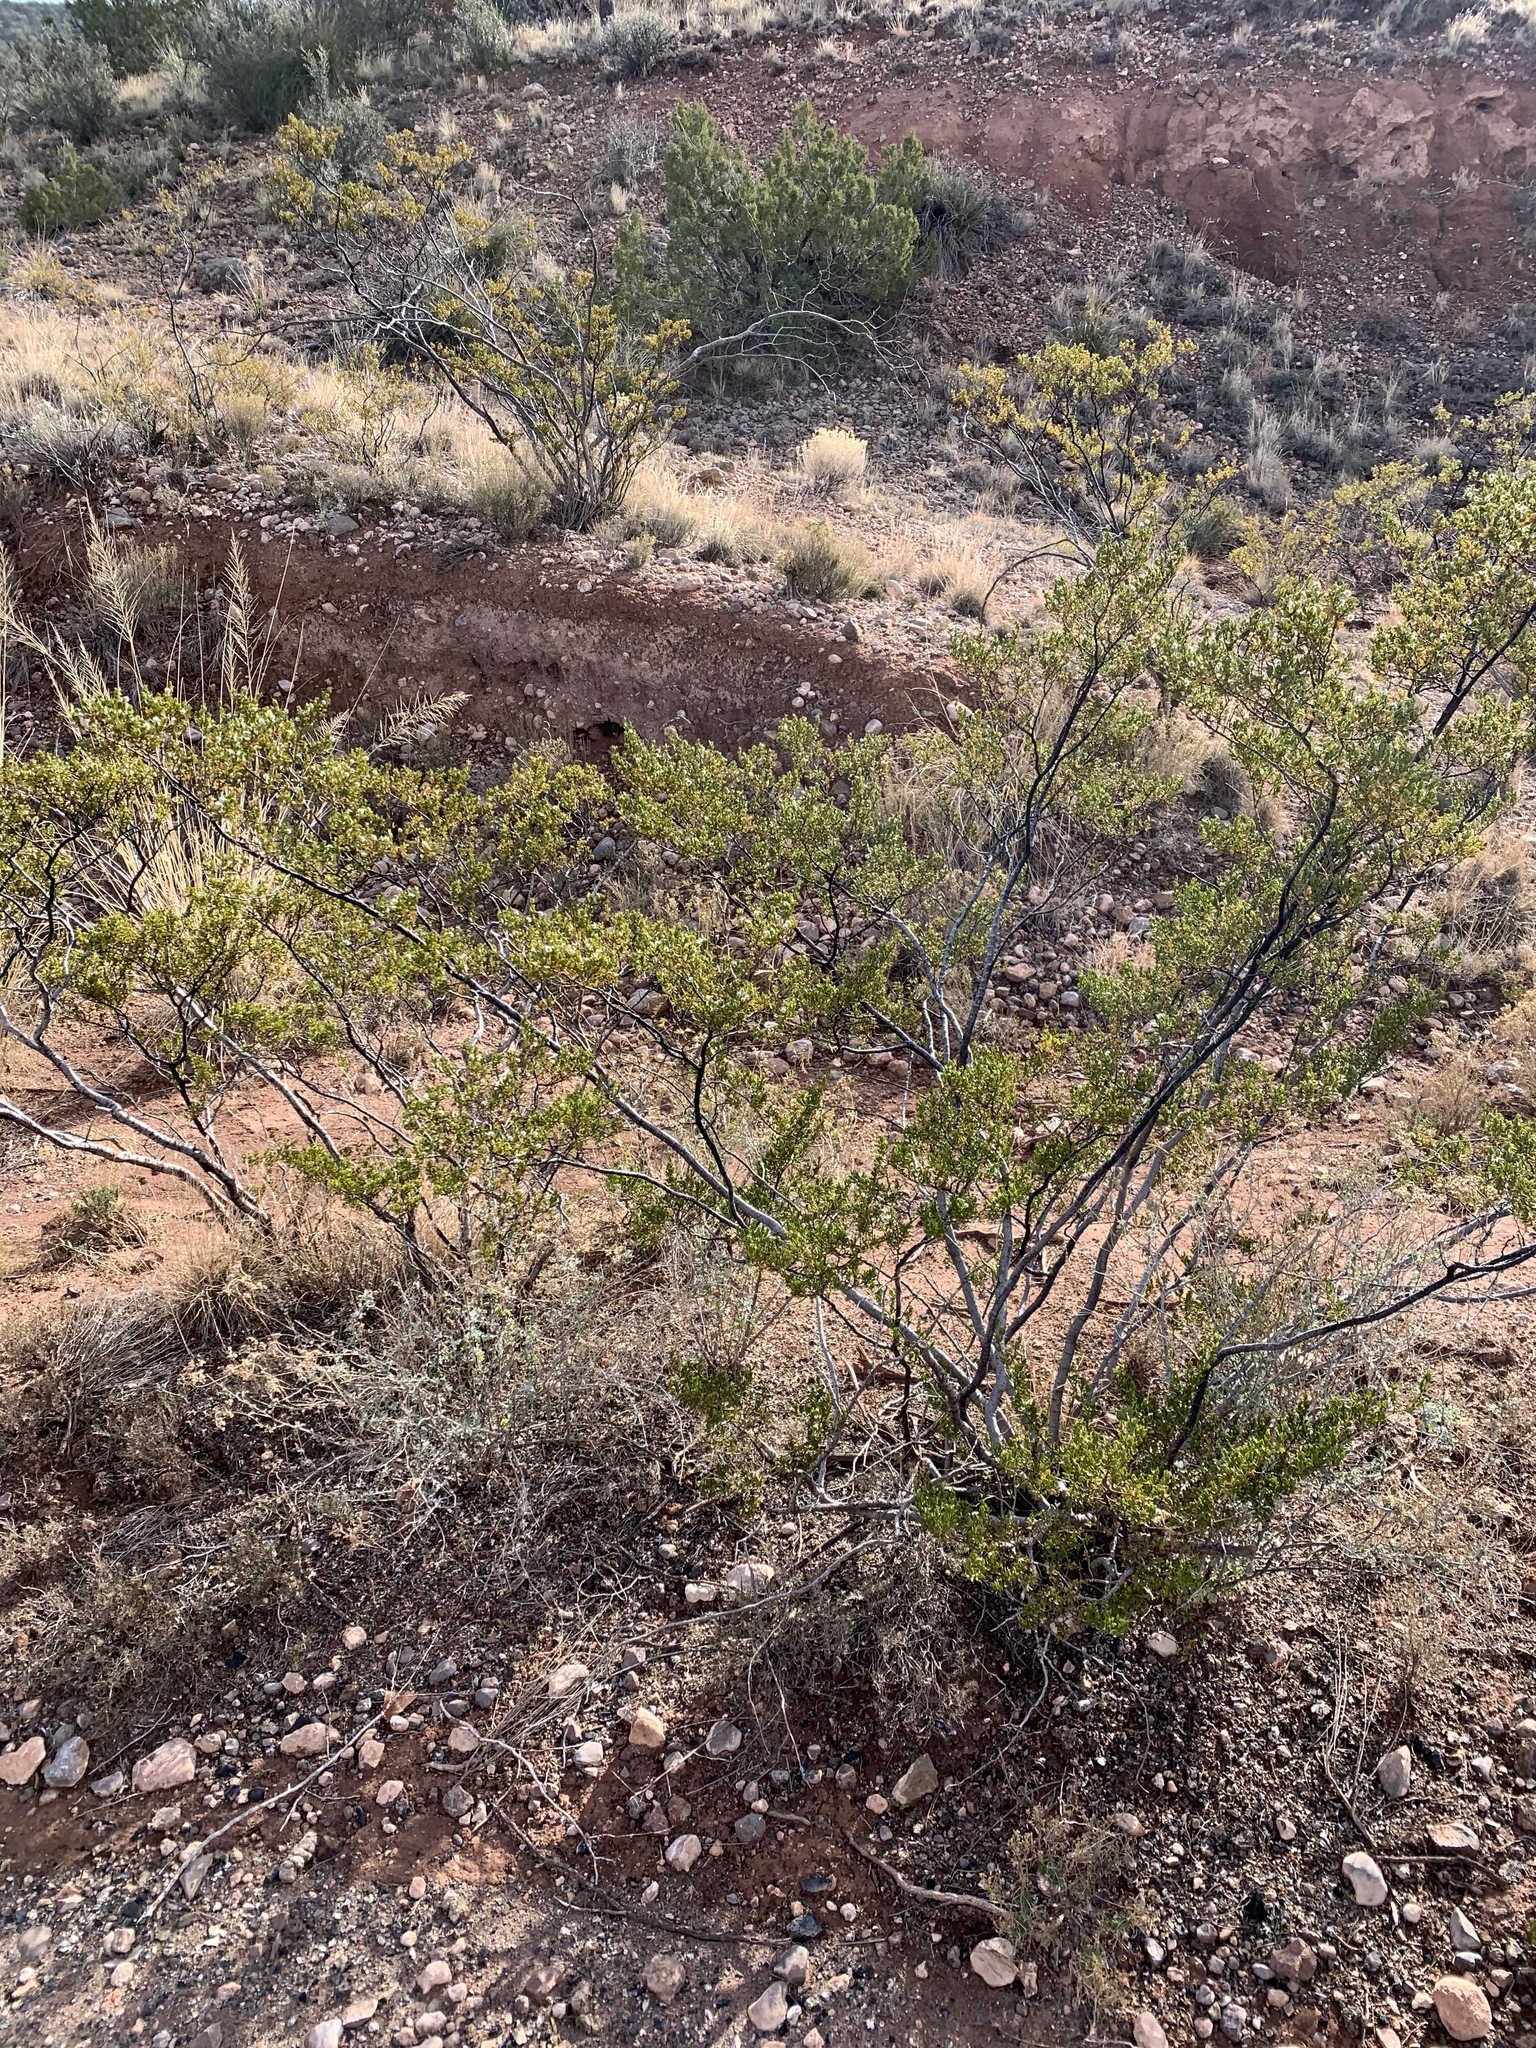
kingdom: Plantae
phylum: Tracheophyta
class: Magnoliopsida
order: Zygophyllales
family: Zygophyllaceae
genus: Larrea
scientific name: Larrea tridentata
